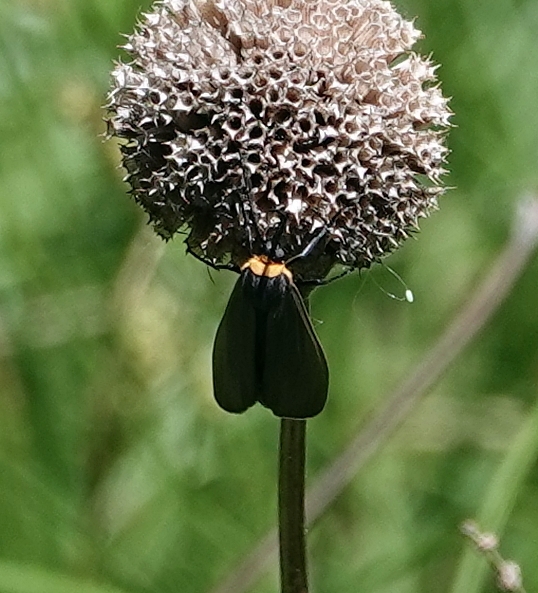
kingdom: Animalia
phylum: Arthropoda
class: Insecta
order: Lepidoptera
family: Erebidae
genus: Cisseps
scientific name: Cisseps fulvicollis
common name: Yellow-collared scape moth
